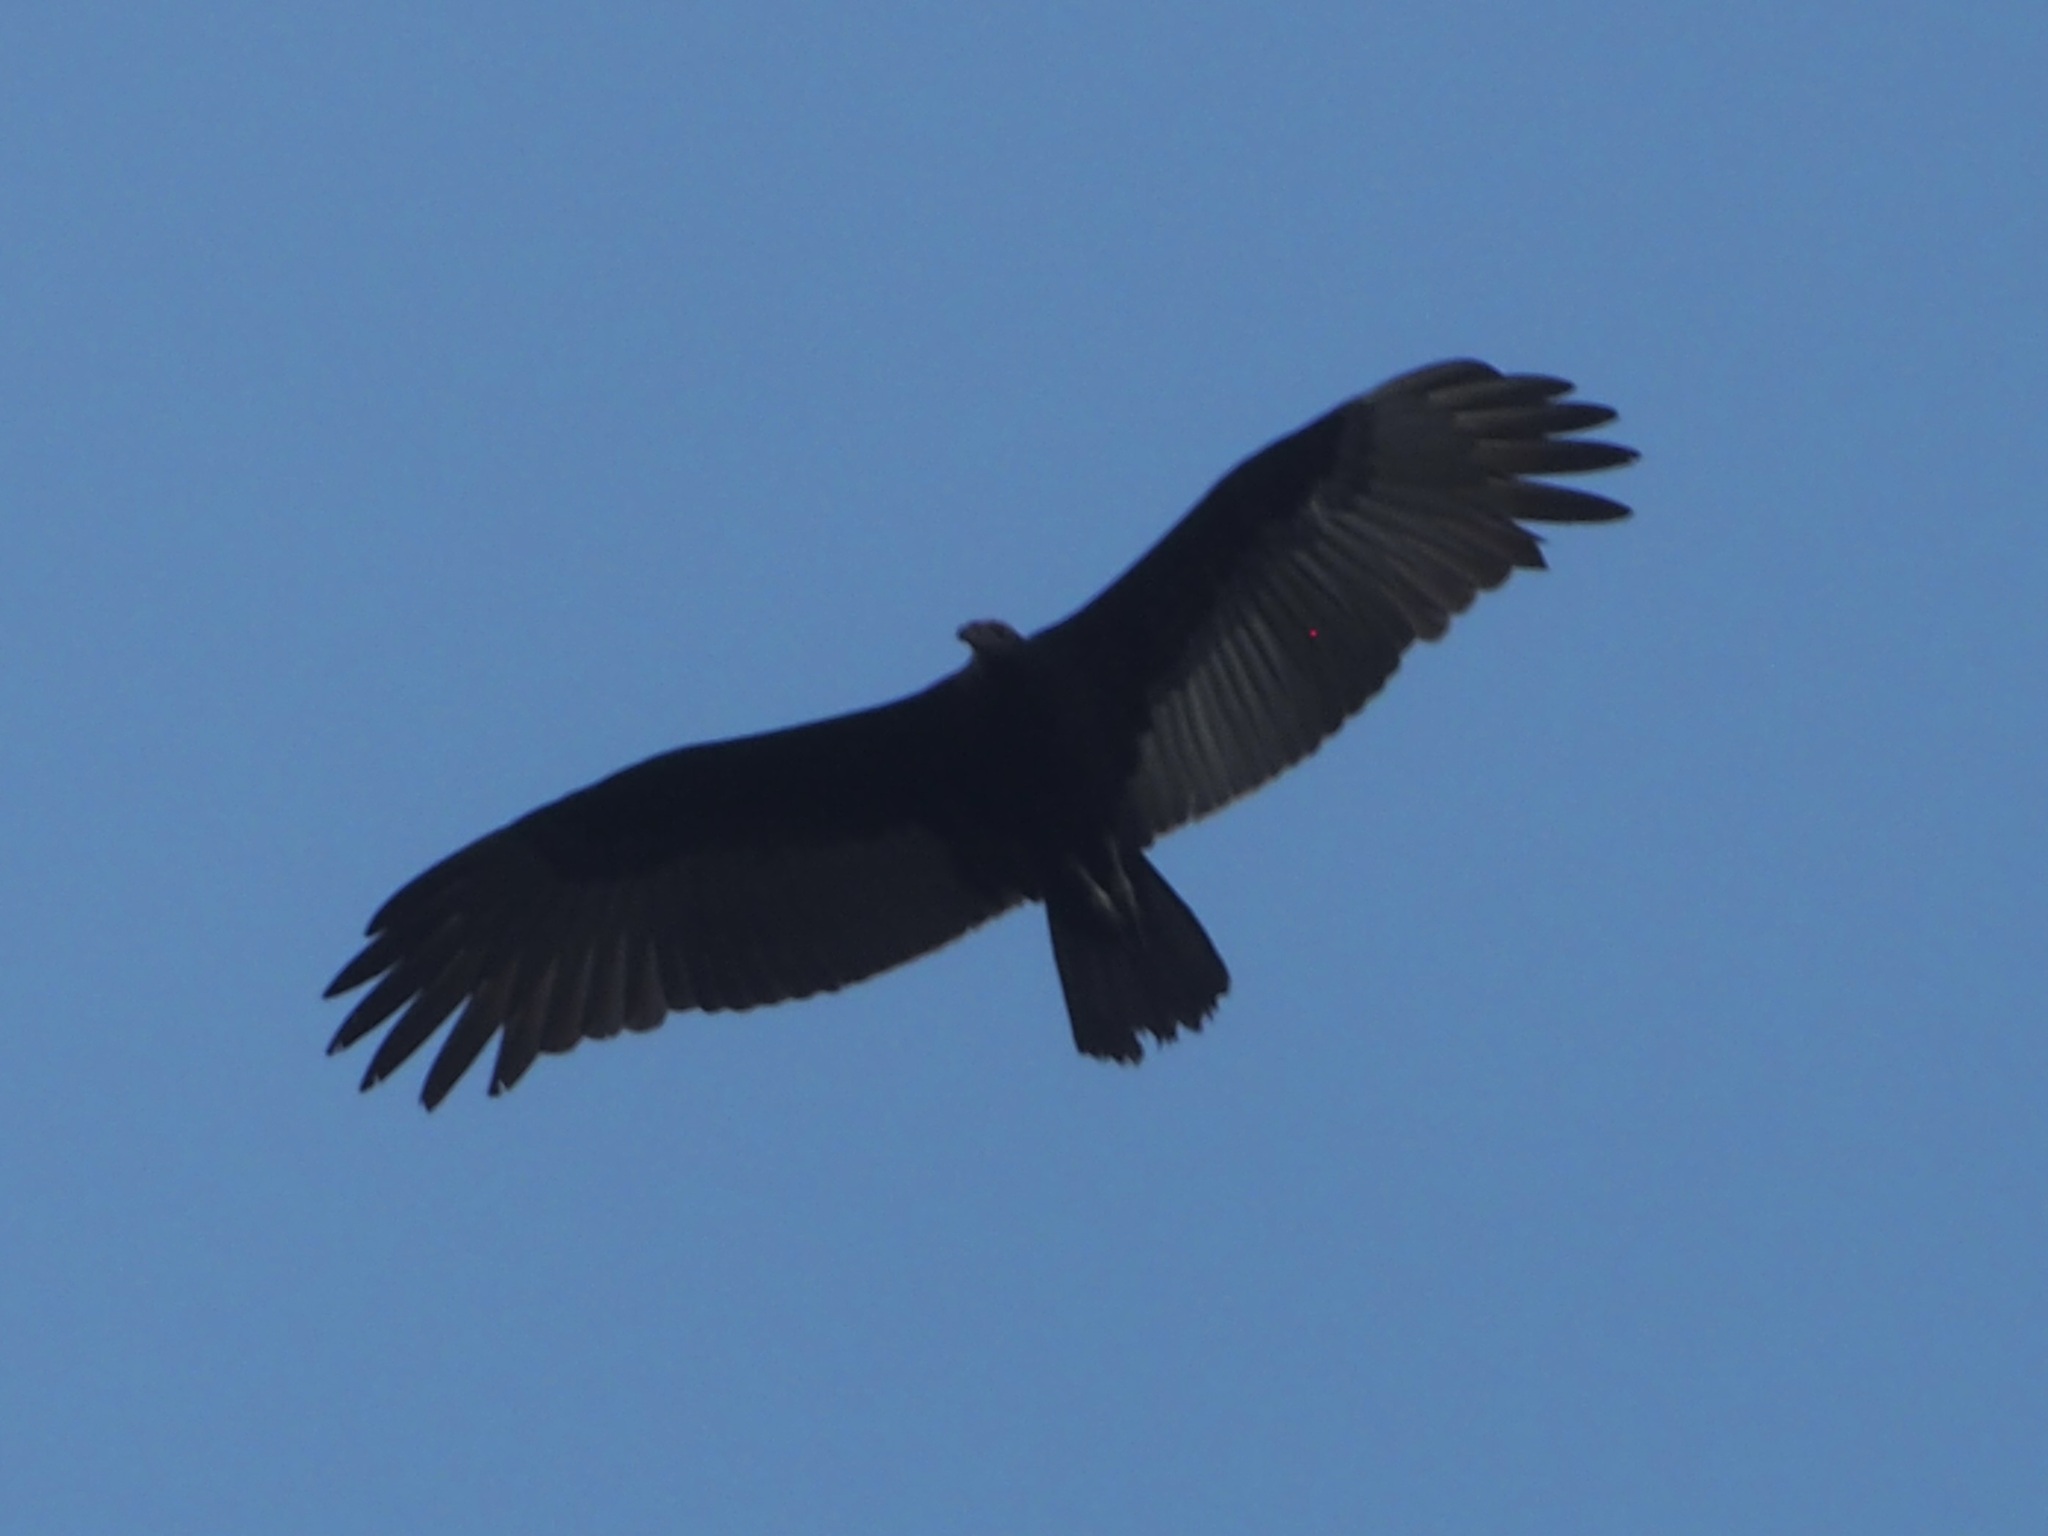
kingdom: Animalia
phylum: Chordata
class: Aves
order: Accipitriformes
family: Cathartidae
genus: Cathartes
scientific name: Cathartes burrovianus
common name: Lesser yellow-headed vulture
